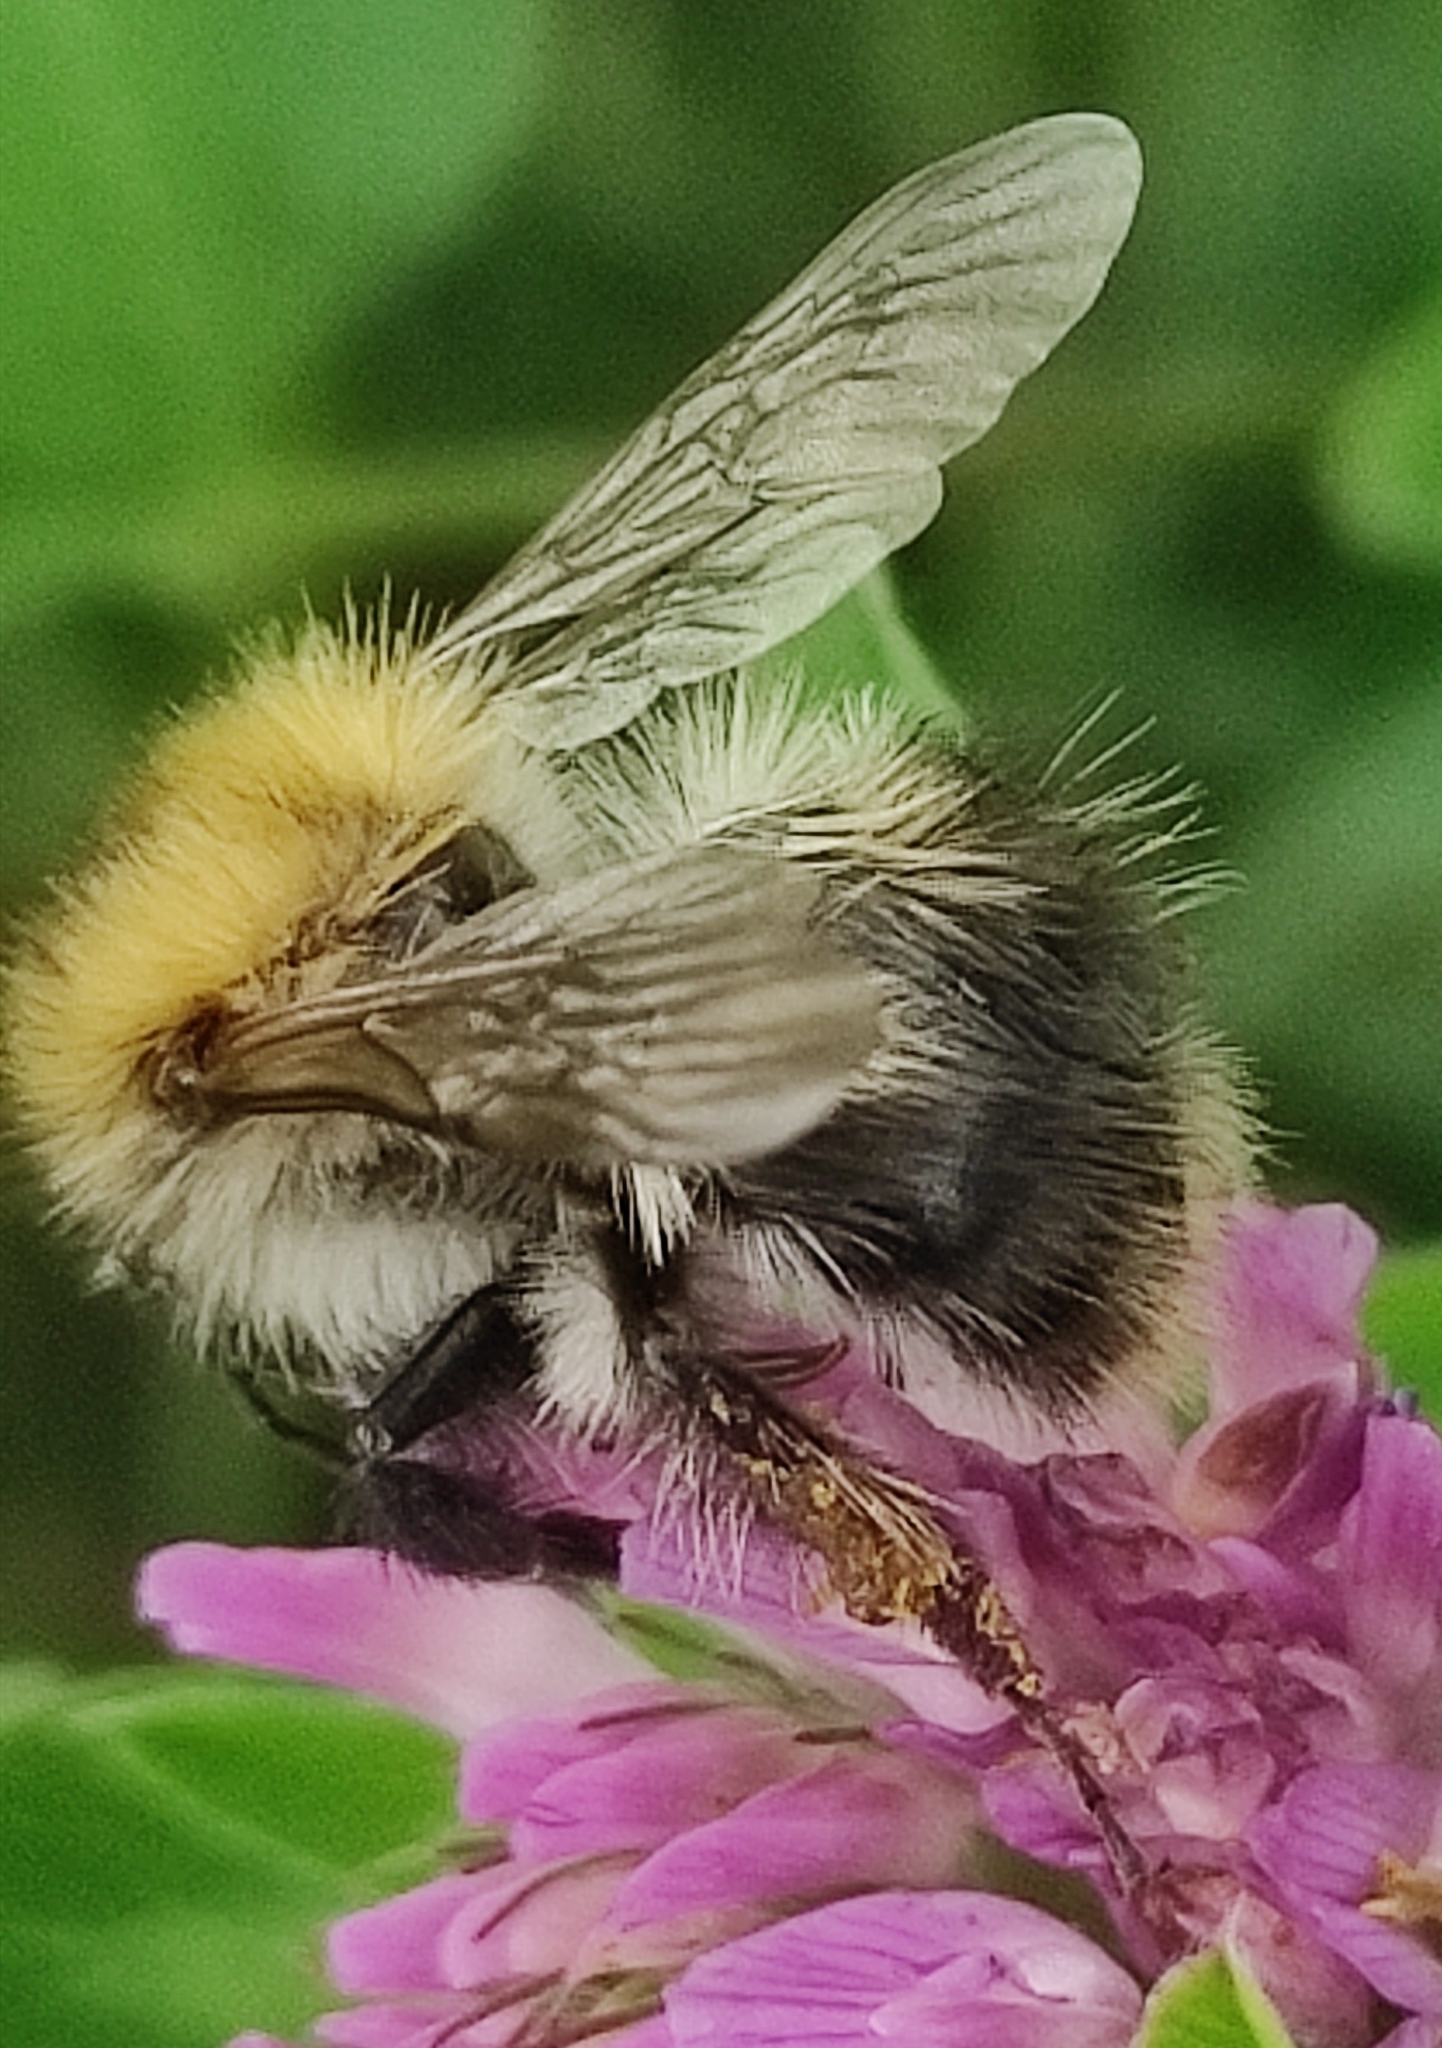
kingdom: Animalia
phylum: Arthropoda
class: Insecta
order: Hymenoptera
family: Apidae
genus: Bombus
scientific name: Bombus pascuorum
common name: Common carder bee
